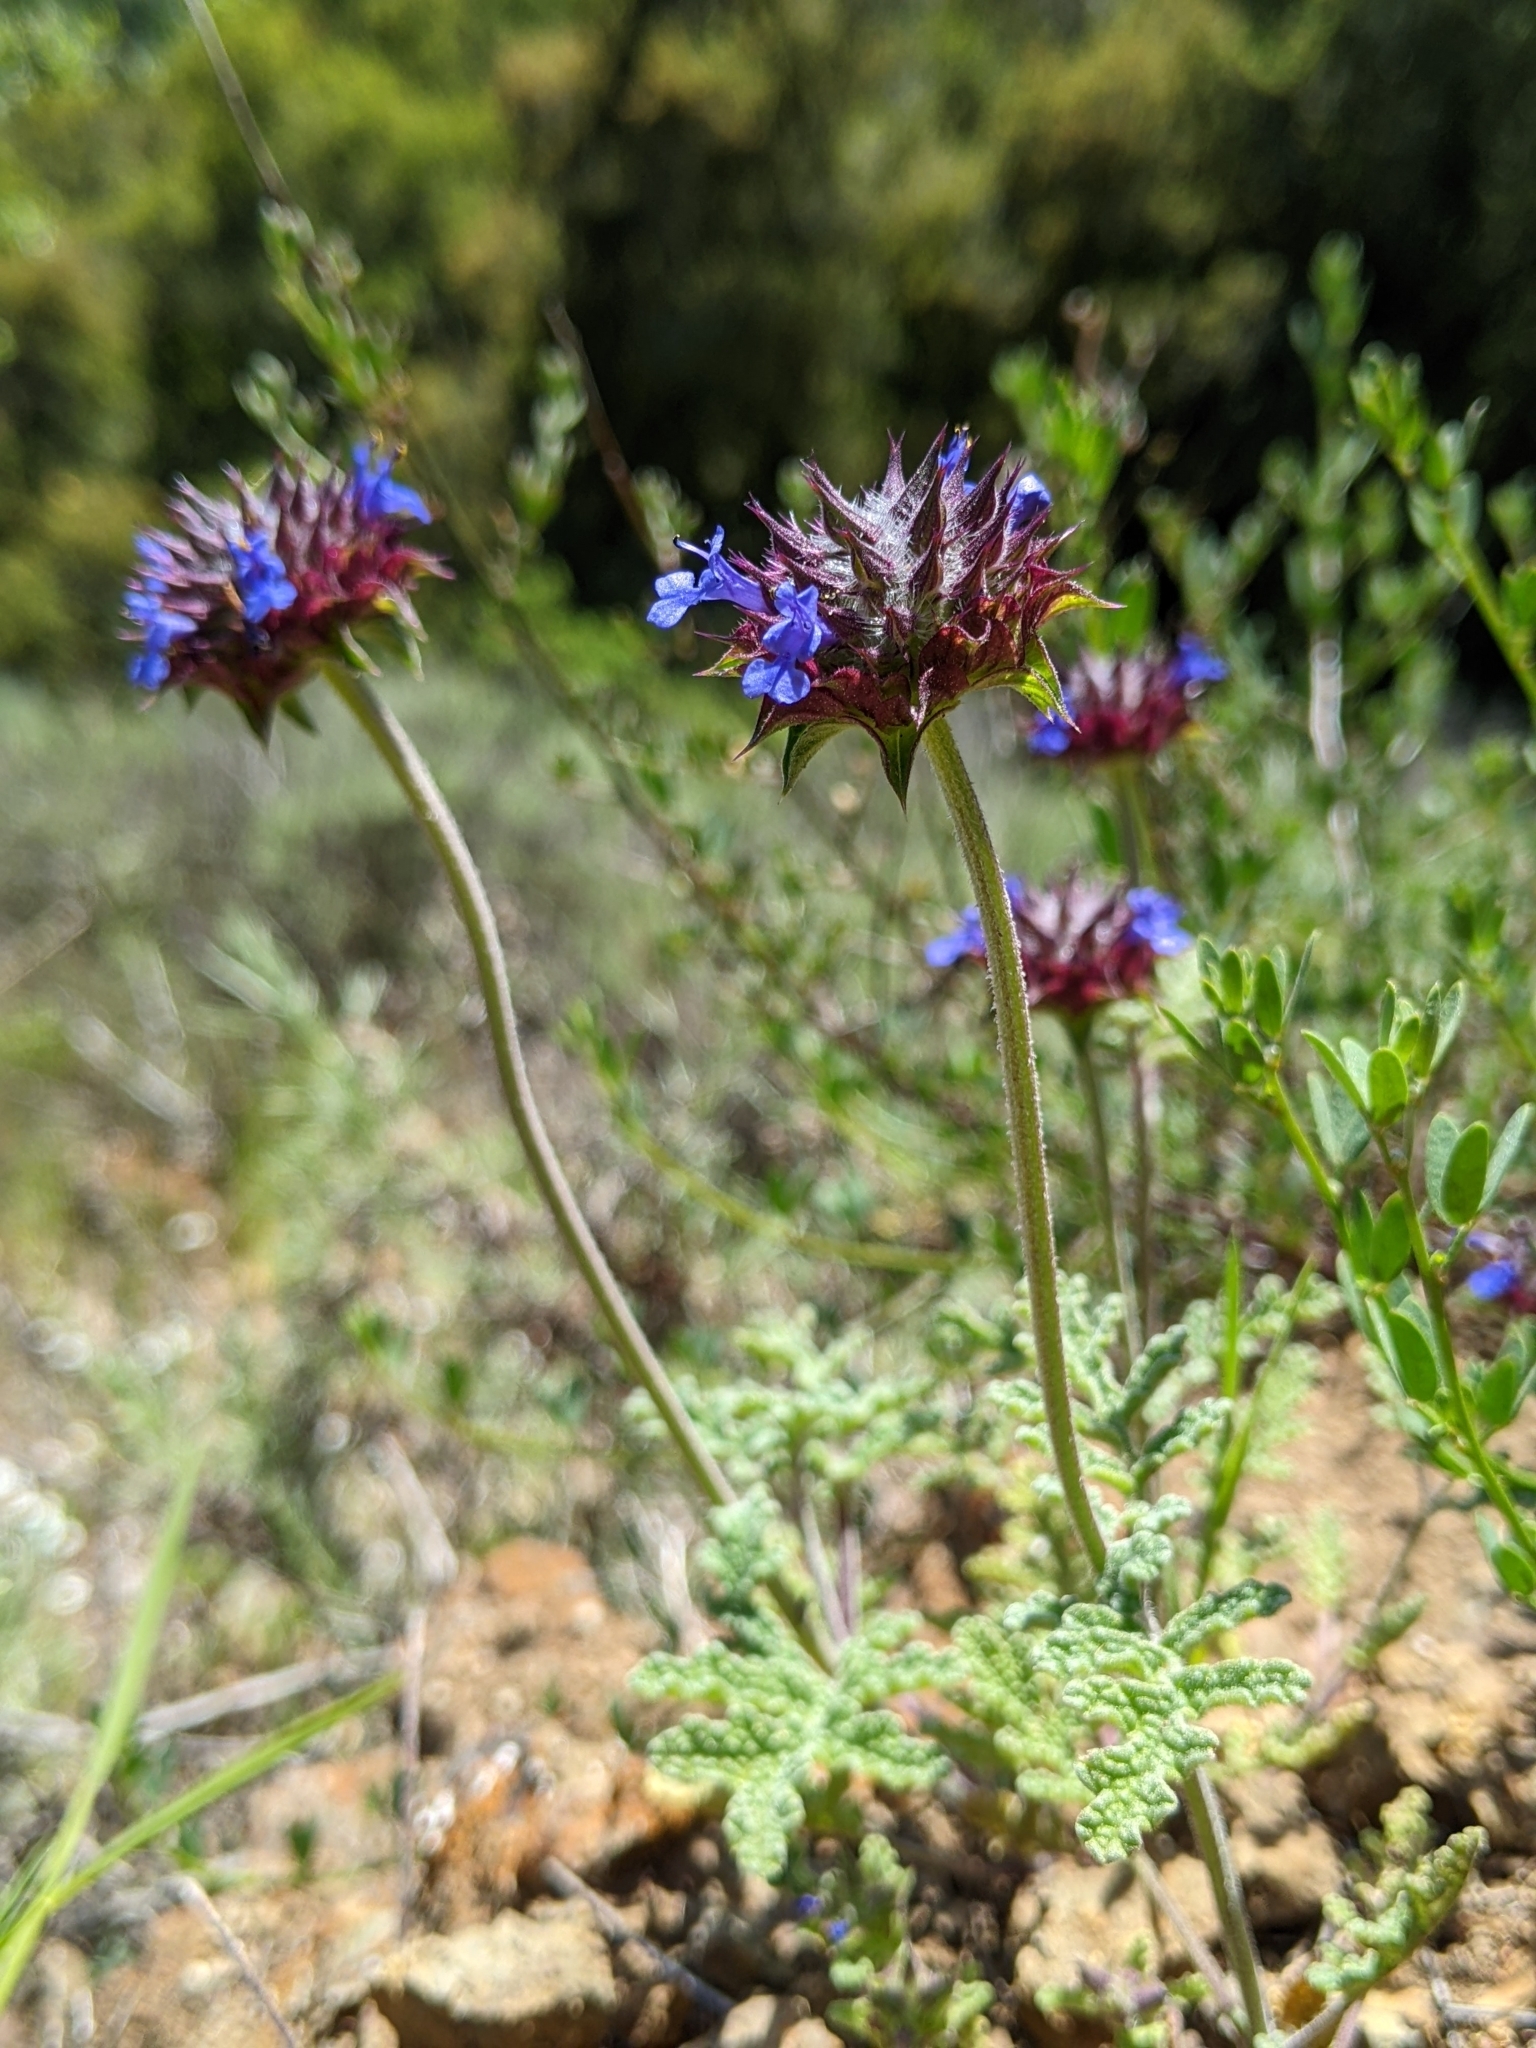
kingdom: Plantae
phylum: Tracheophyta
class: Magnoliopsida
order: Lamiales
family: Lamiaceae
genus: Salvia
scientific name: Salvia columbariae
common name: Chia
